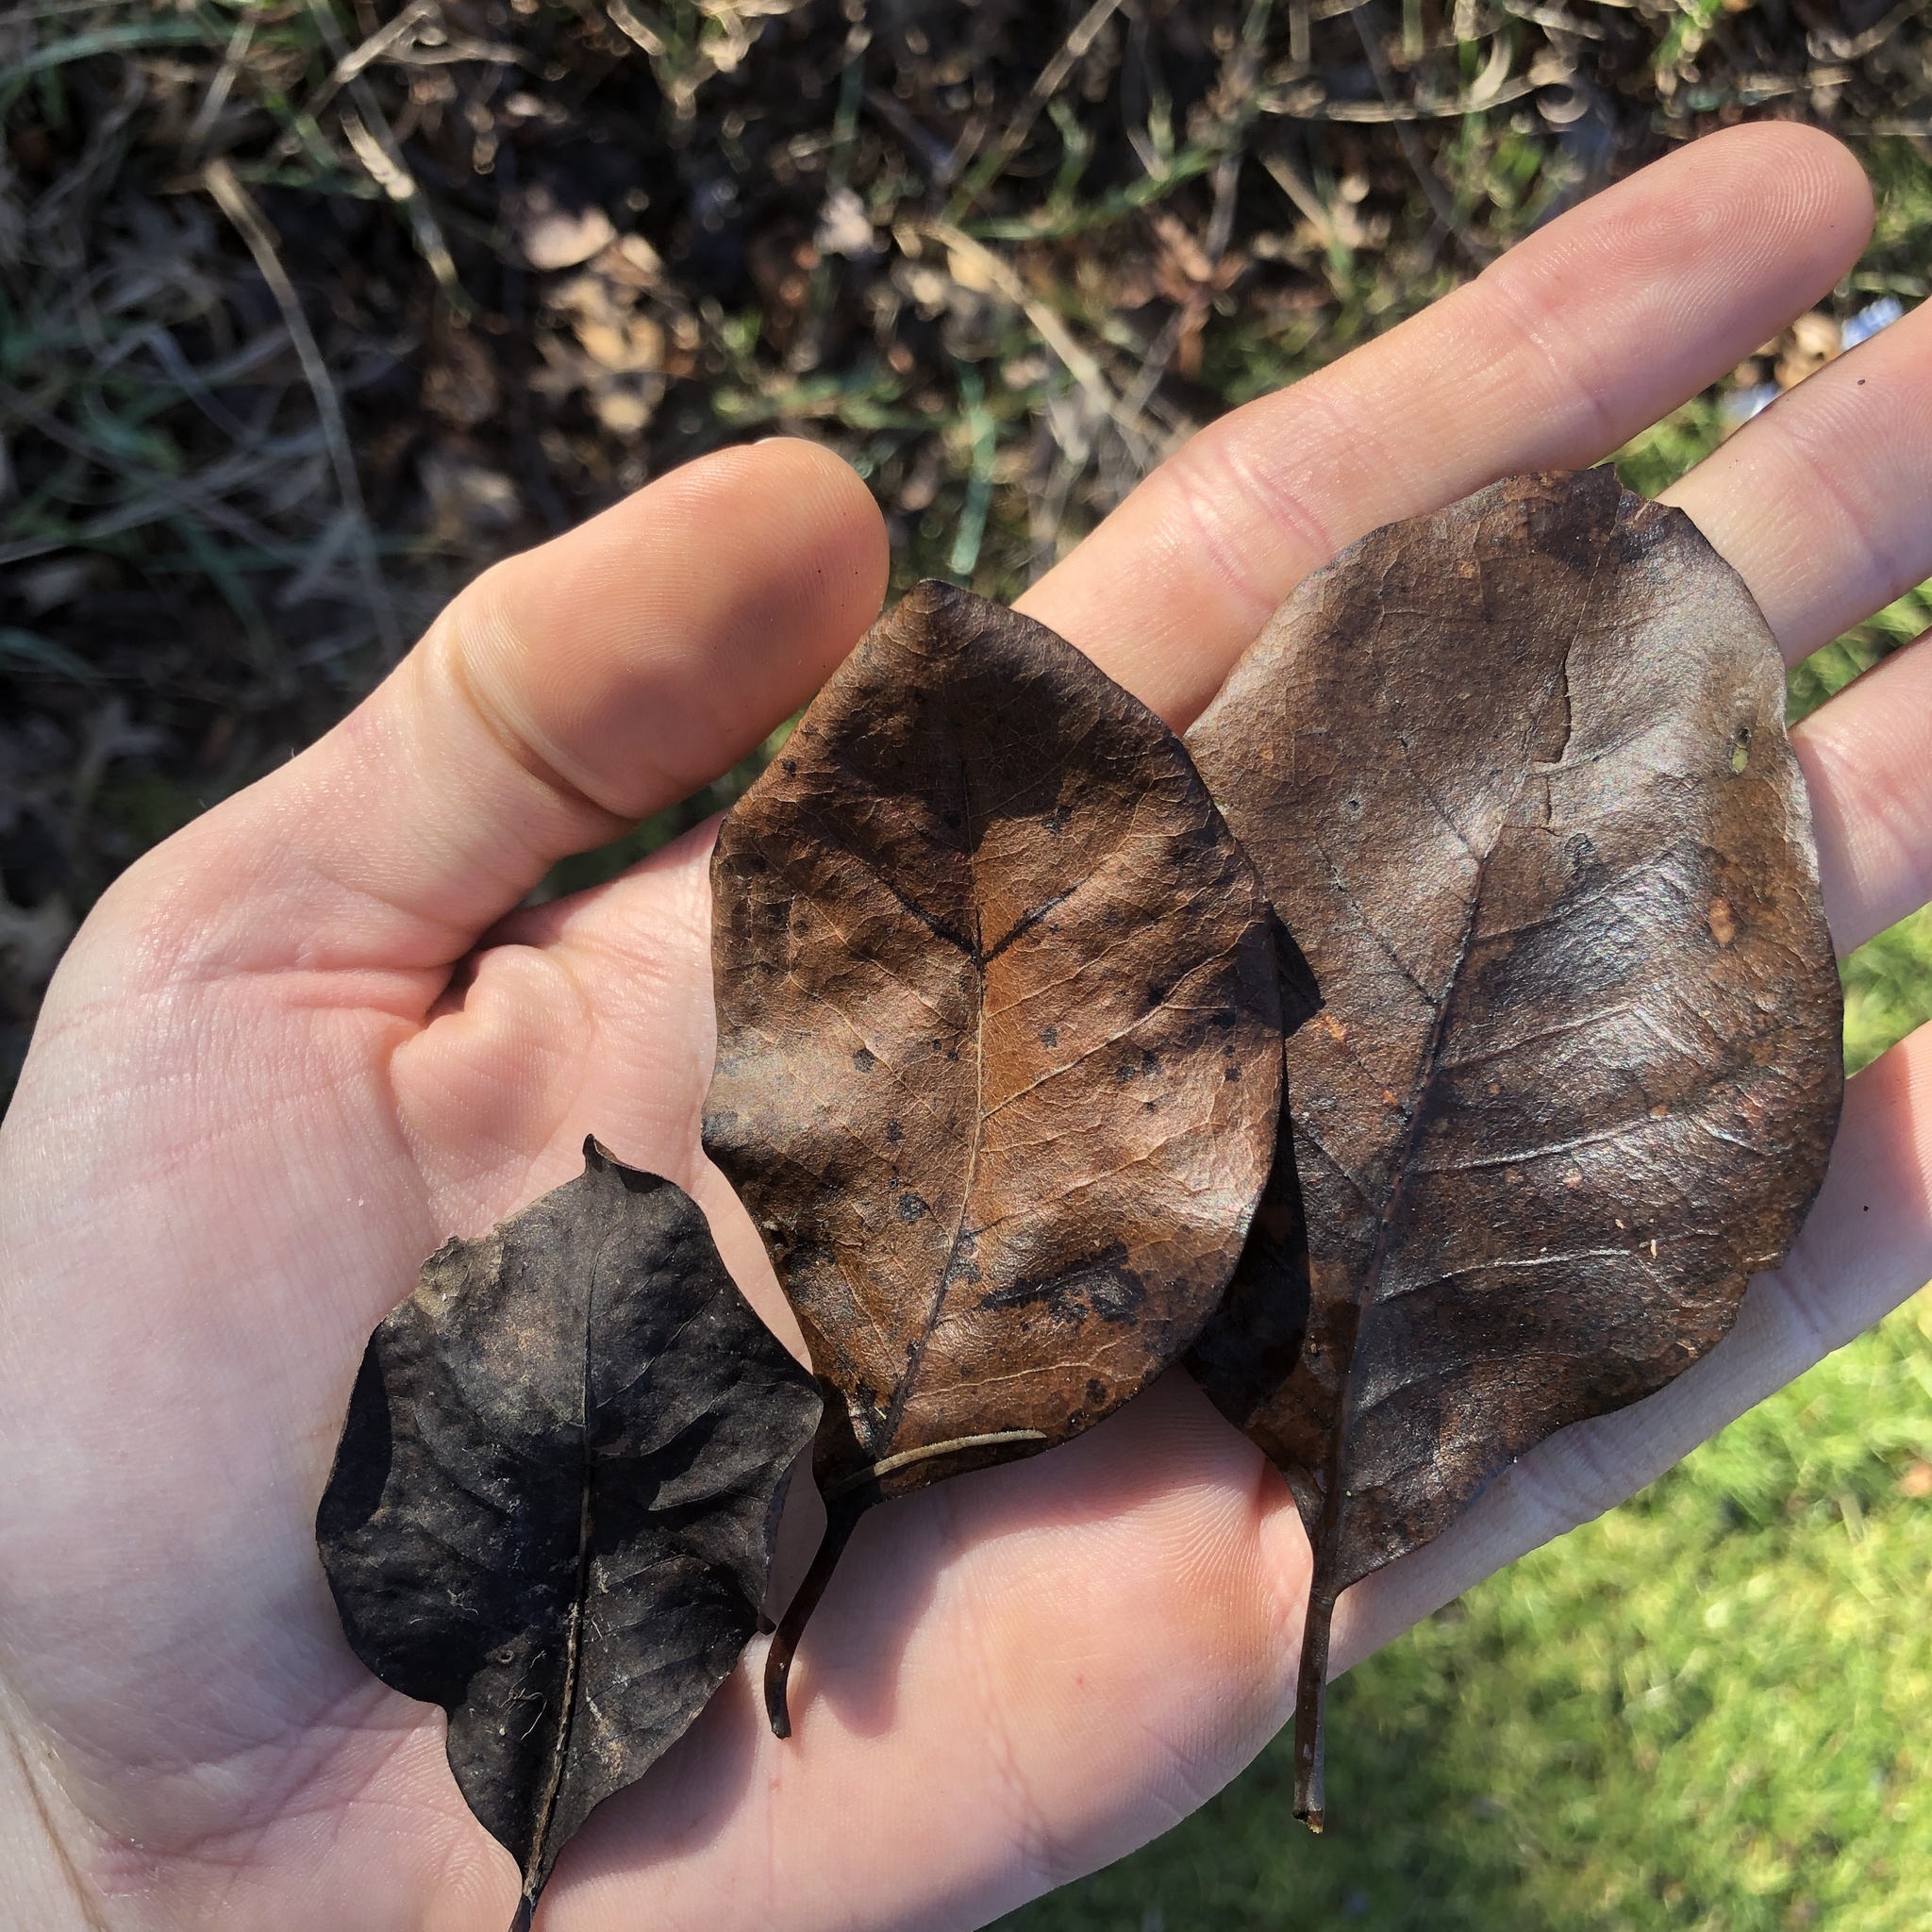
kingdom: Plantae
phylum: Tracheophyta
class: Magnoliopsida
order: Cornales
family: Nyssaceae
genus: Nyssa
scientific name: Nyssa sylvatica
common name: Black tupelo
